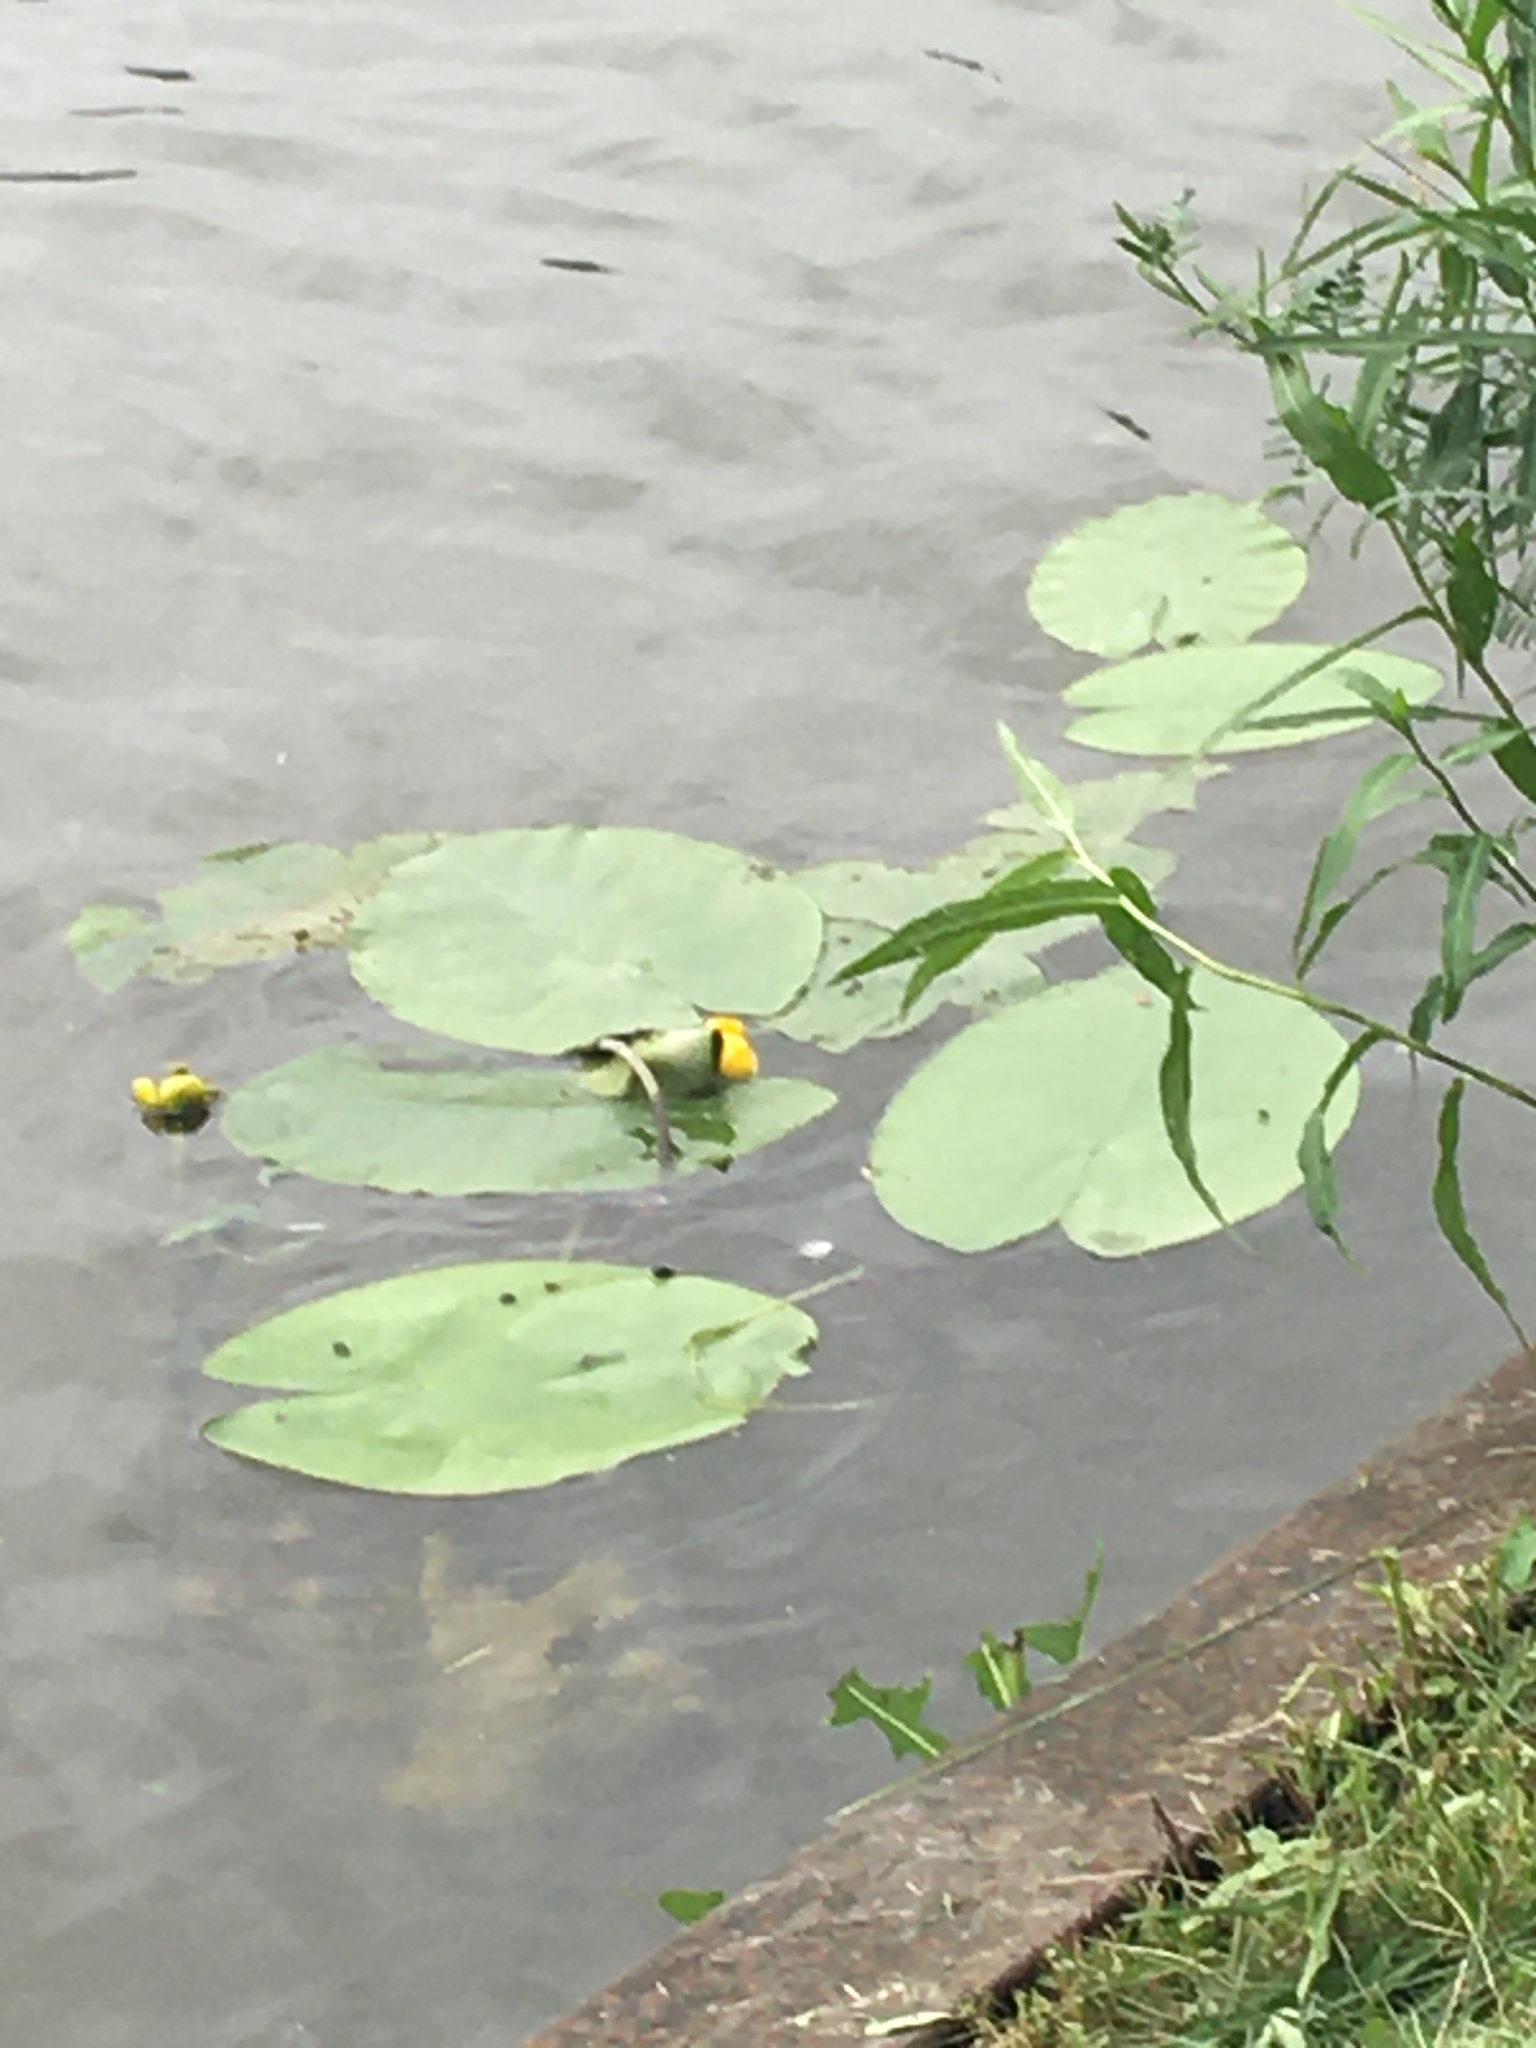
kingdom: Plantae
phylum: Tracheophyta
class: Magnoliopsida
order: Nymphaeales
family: Nymphaeaceae
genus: Nuphar
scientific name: Nuphar lutea
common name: Yellow water-lily
